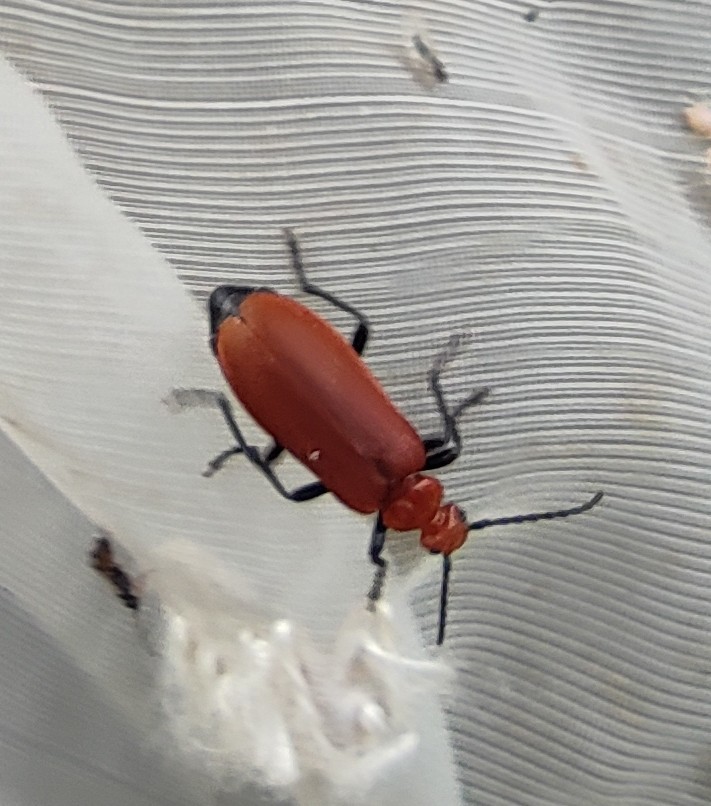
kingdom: Animalia
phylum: Arthropoda
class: Insecta
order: Coleoptera
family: Pyrochroidae
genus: Pyrochroa
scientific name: Pyrochroa serraticornis
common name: Red-headed cardinal beetle
